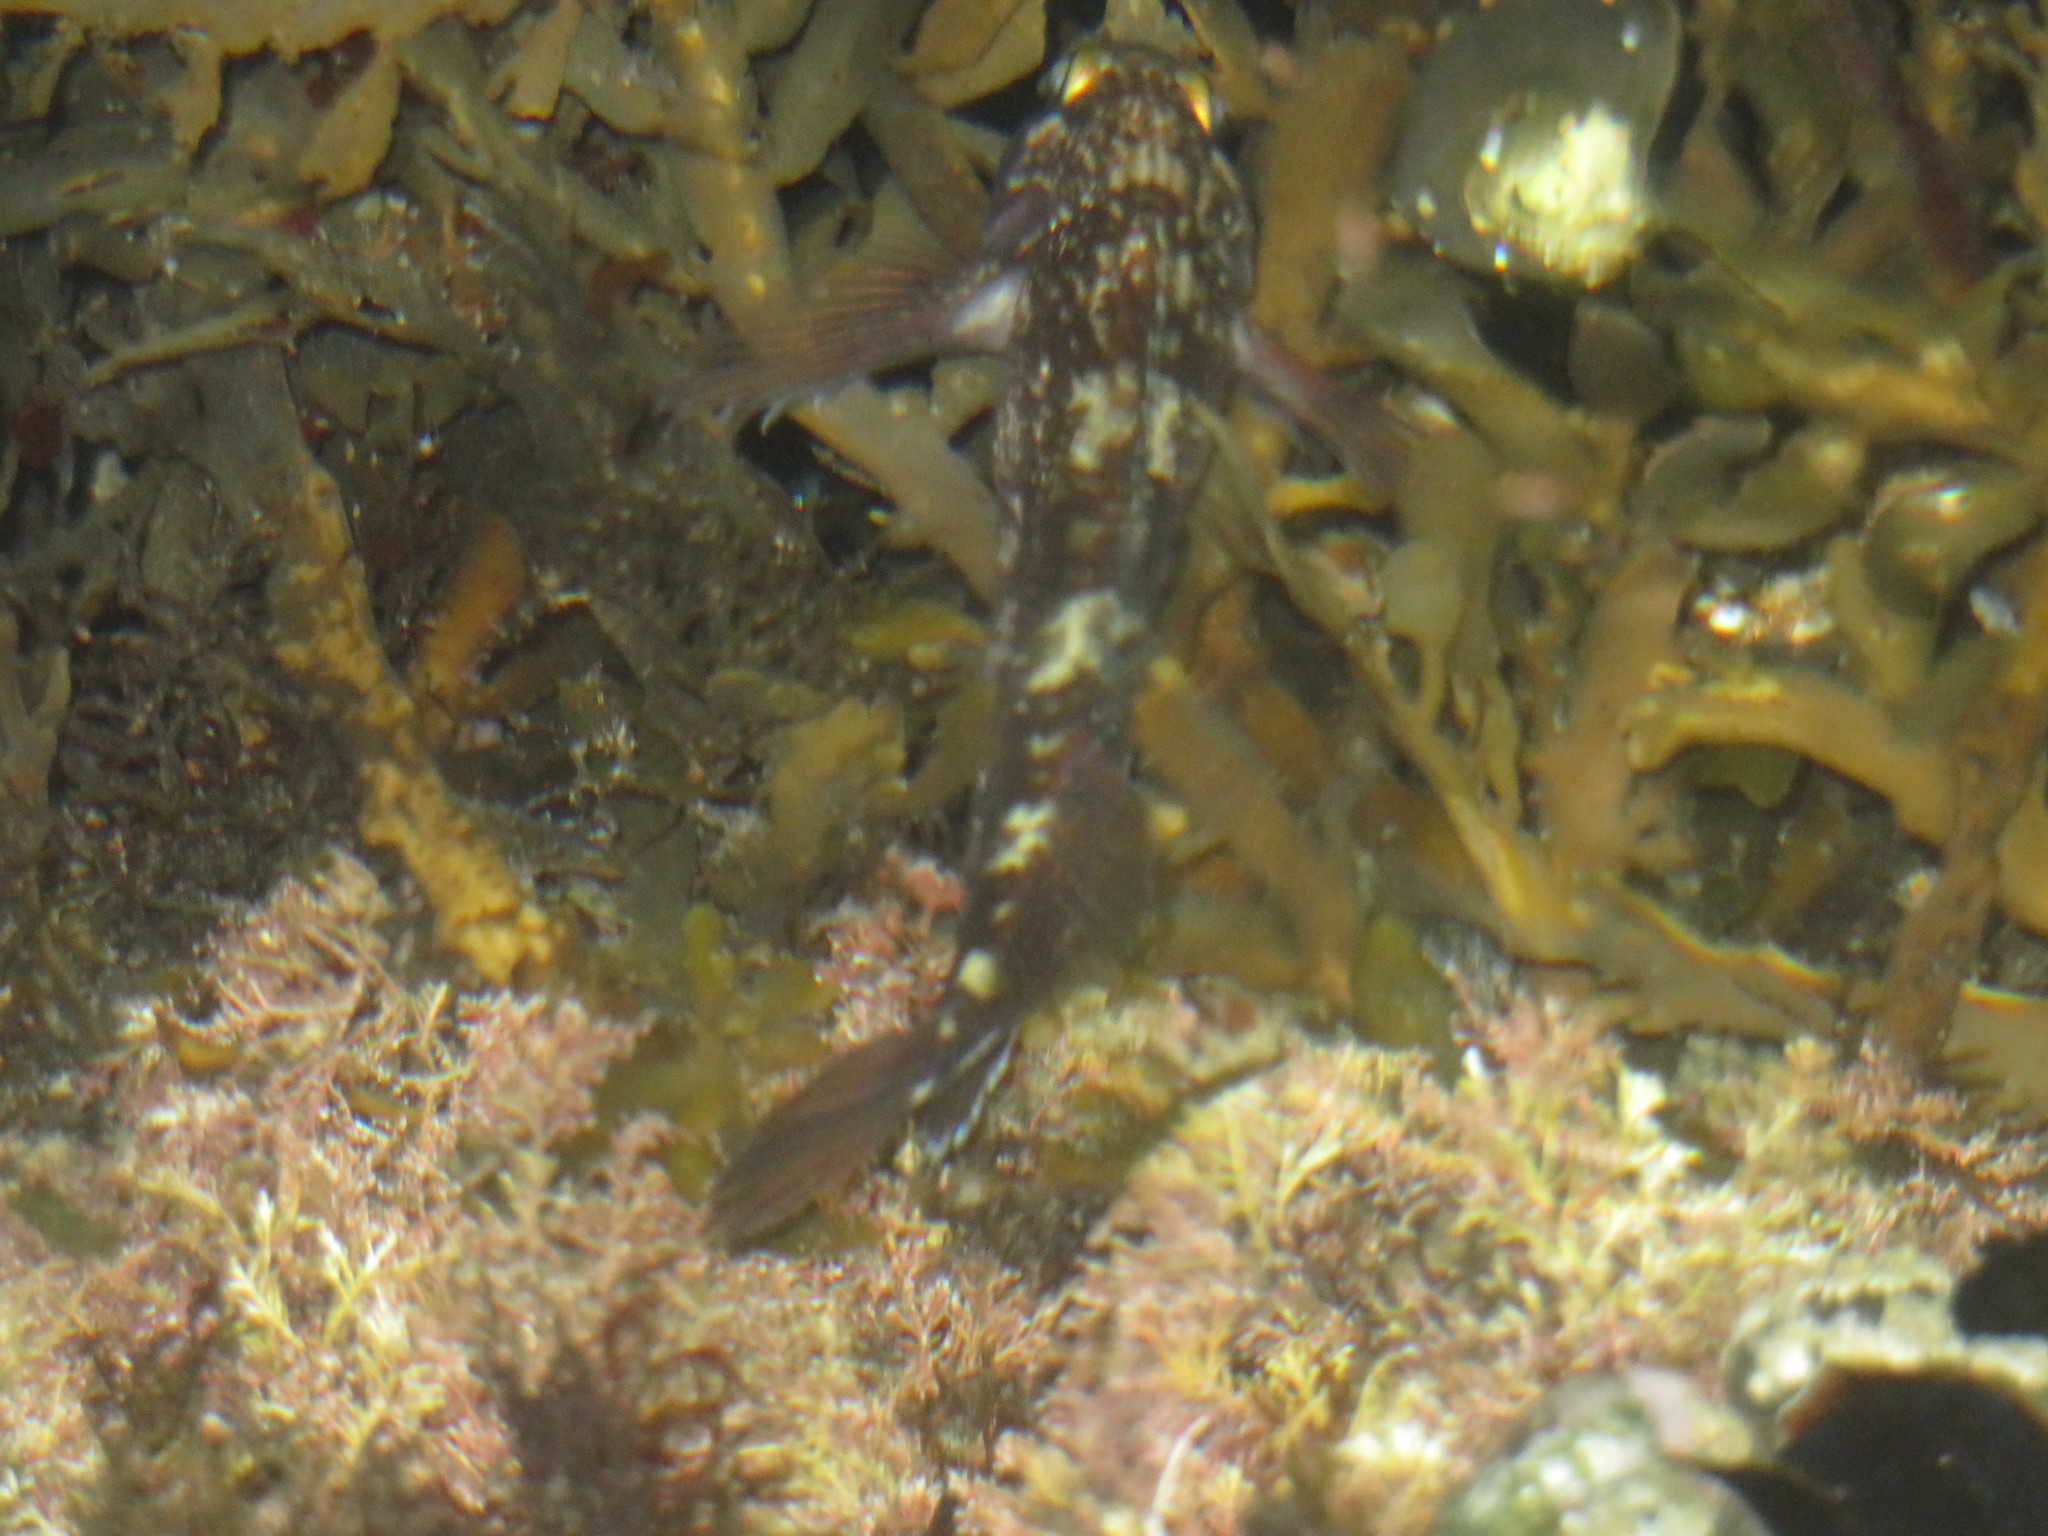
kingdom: Animalia
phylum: Chordata
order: Perciformes
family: Tripterygiidae
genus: Forsterygion
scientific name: Forsterygion varium
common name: Variable triplefin
